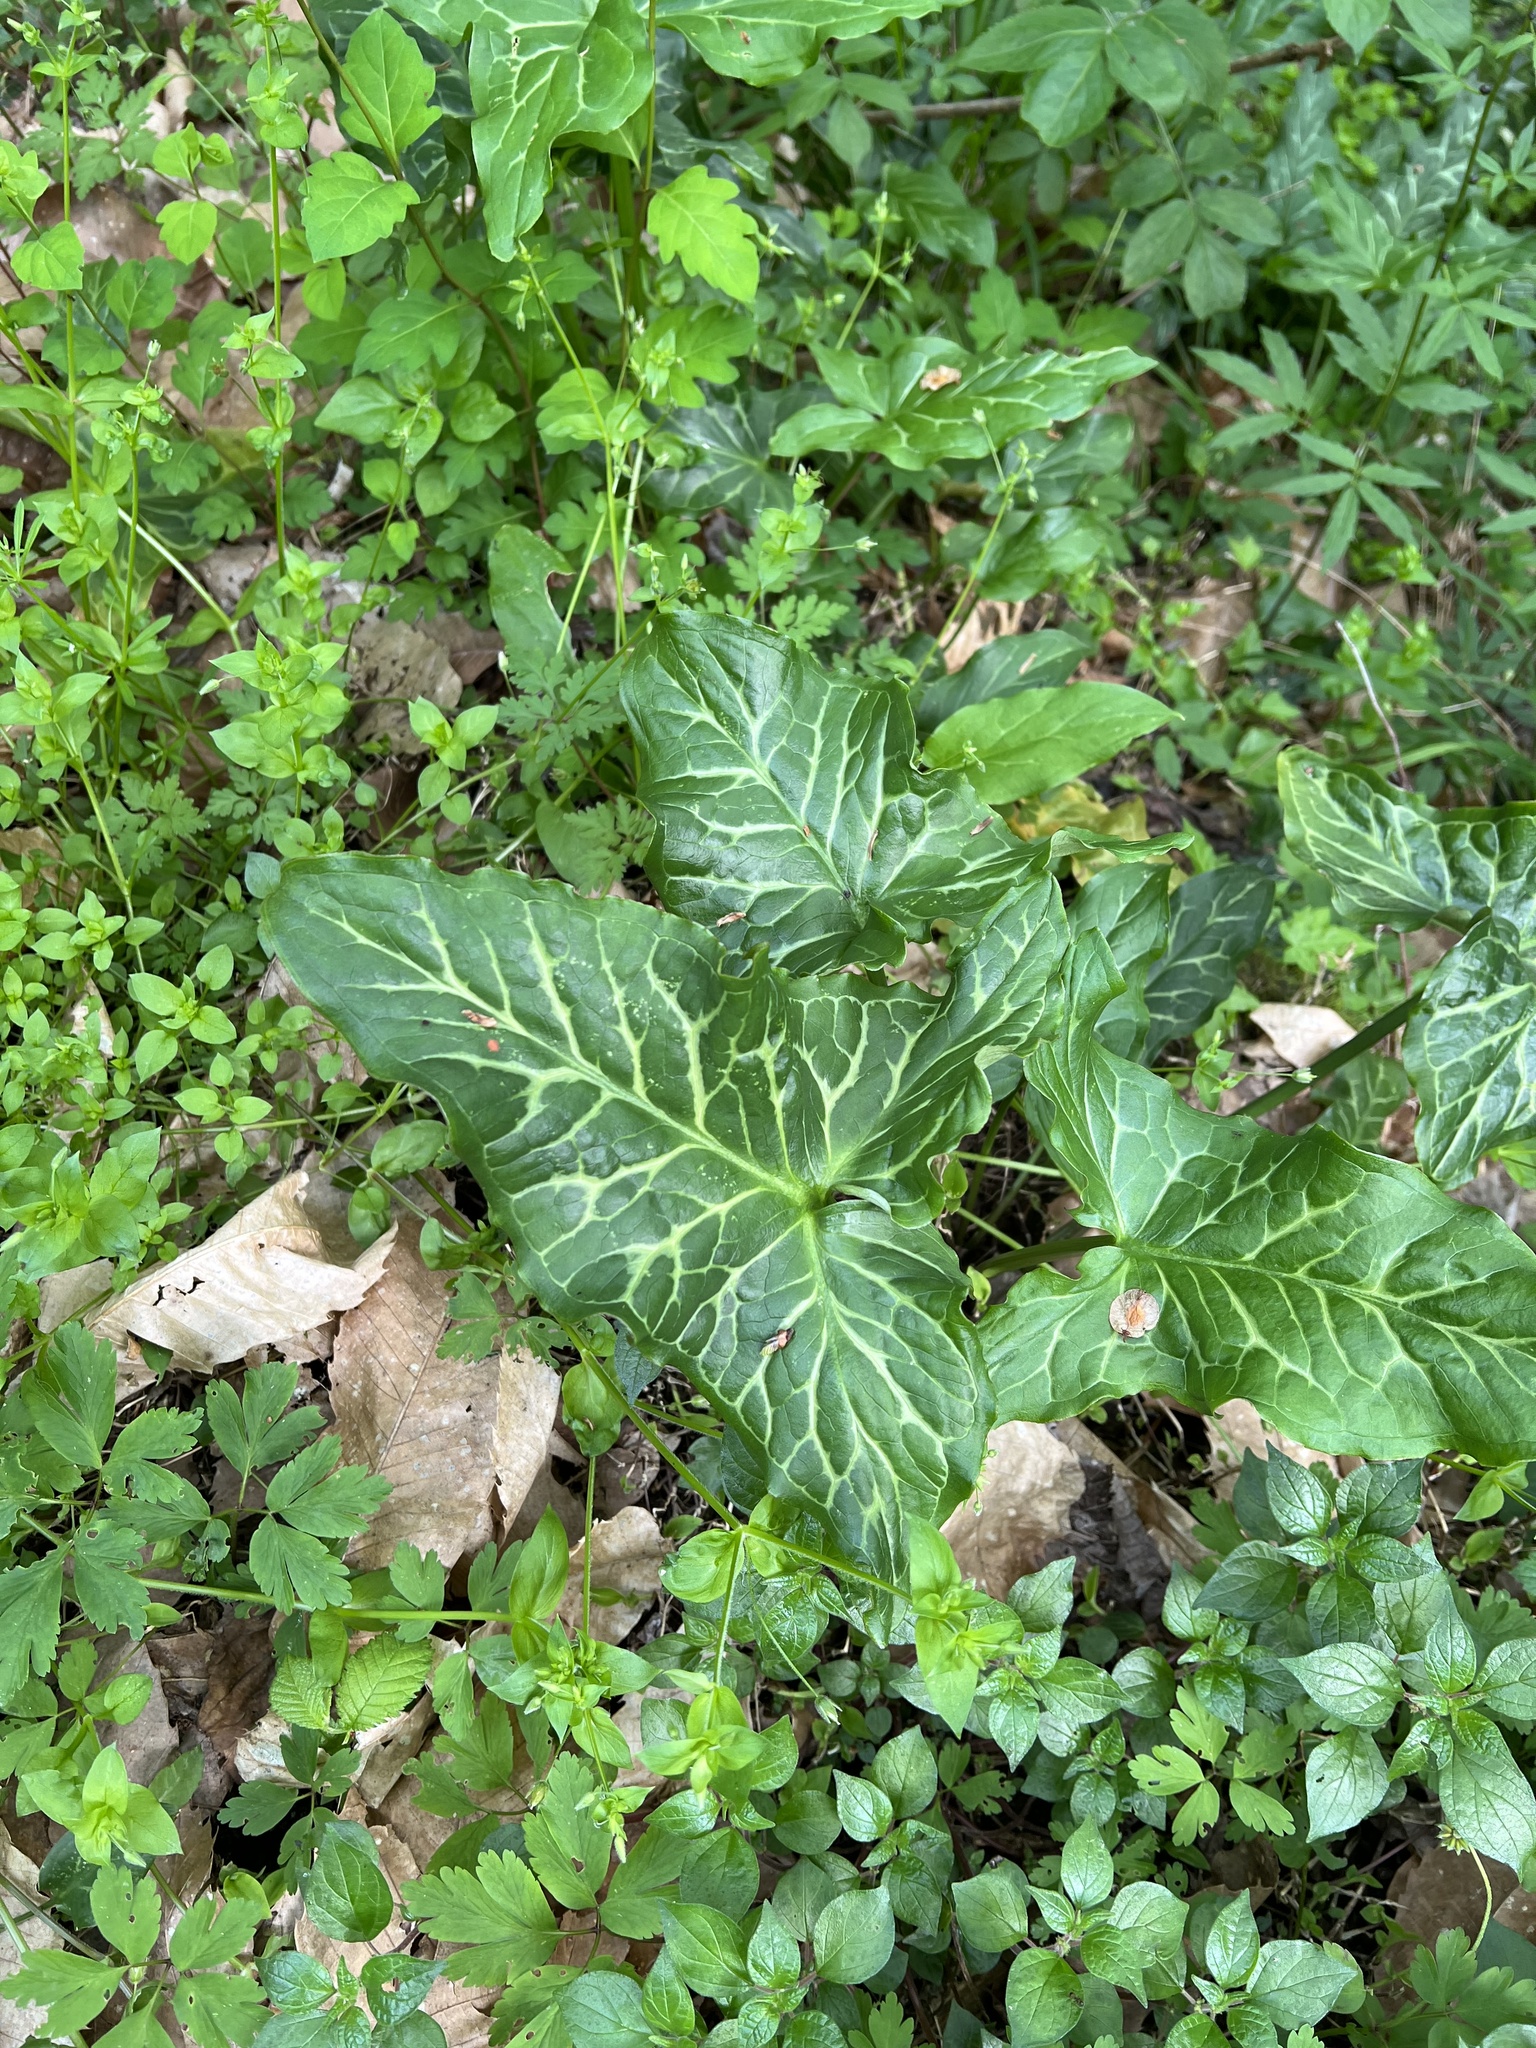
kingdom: Plantae
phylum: Tracheophyta
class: Liliopsida
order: Alismatales
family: Araceae
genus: Arum
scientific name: Arum italicum
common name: Italian lords-and-ladies
